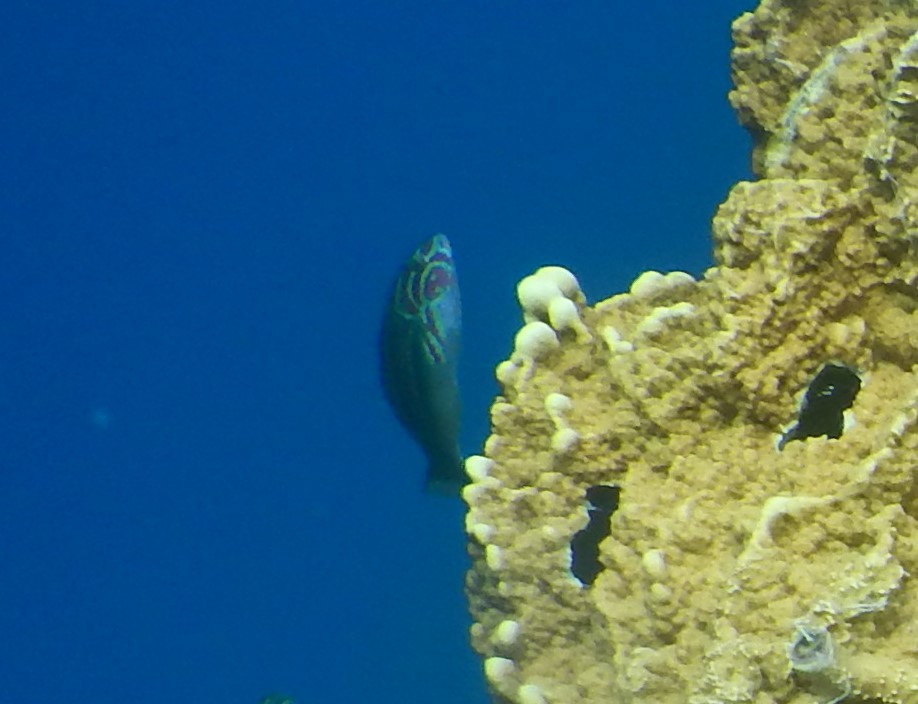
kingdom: Animalia
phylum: Chordata
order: Perciformes
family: Labridae
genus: Thalassoma
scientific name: Thalassoma quinquevittatum
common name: Five striped surge wrasse
